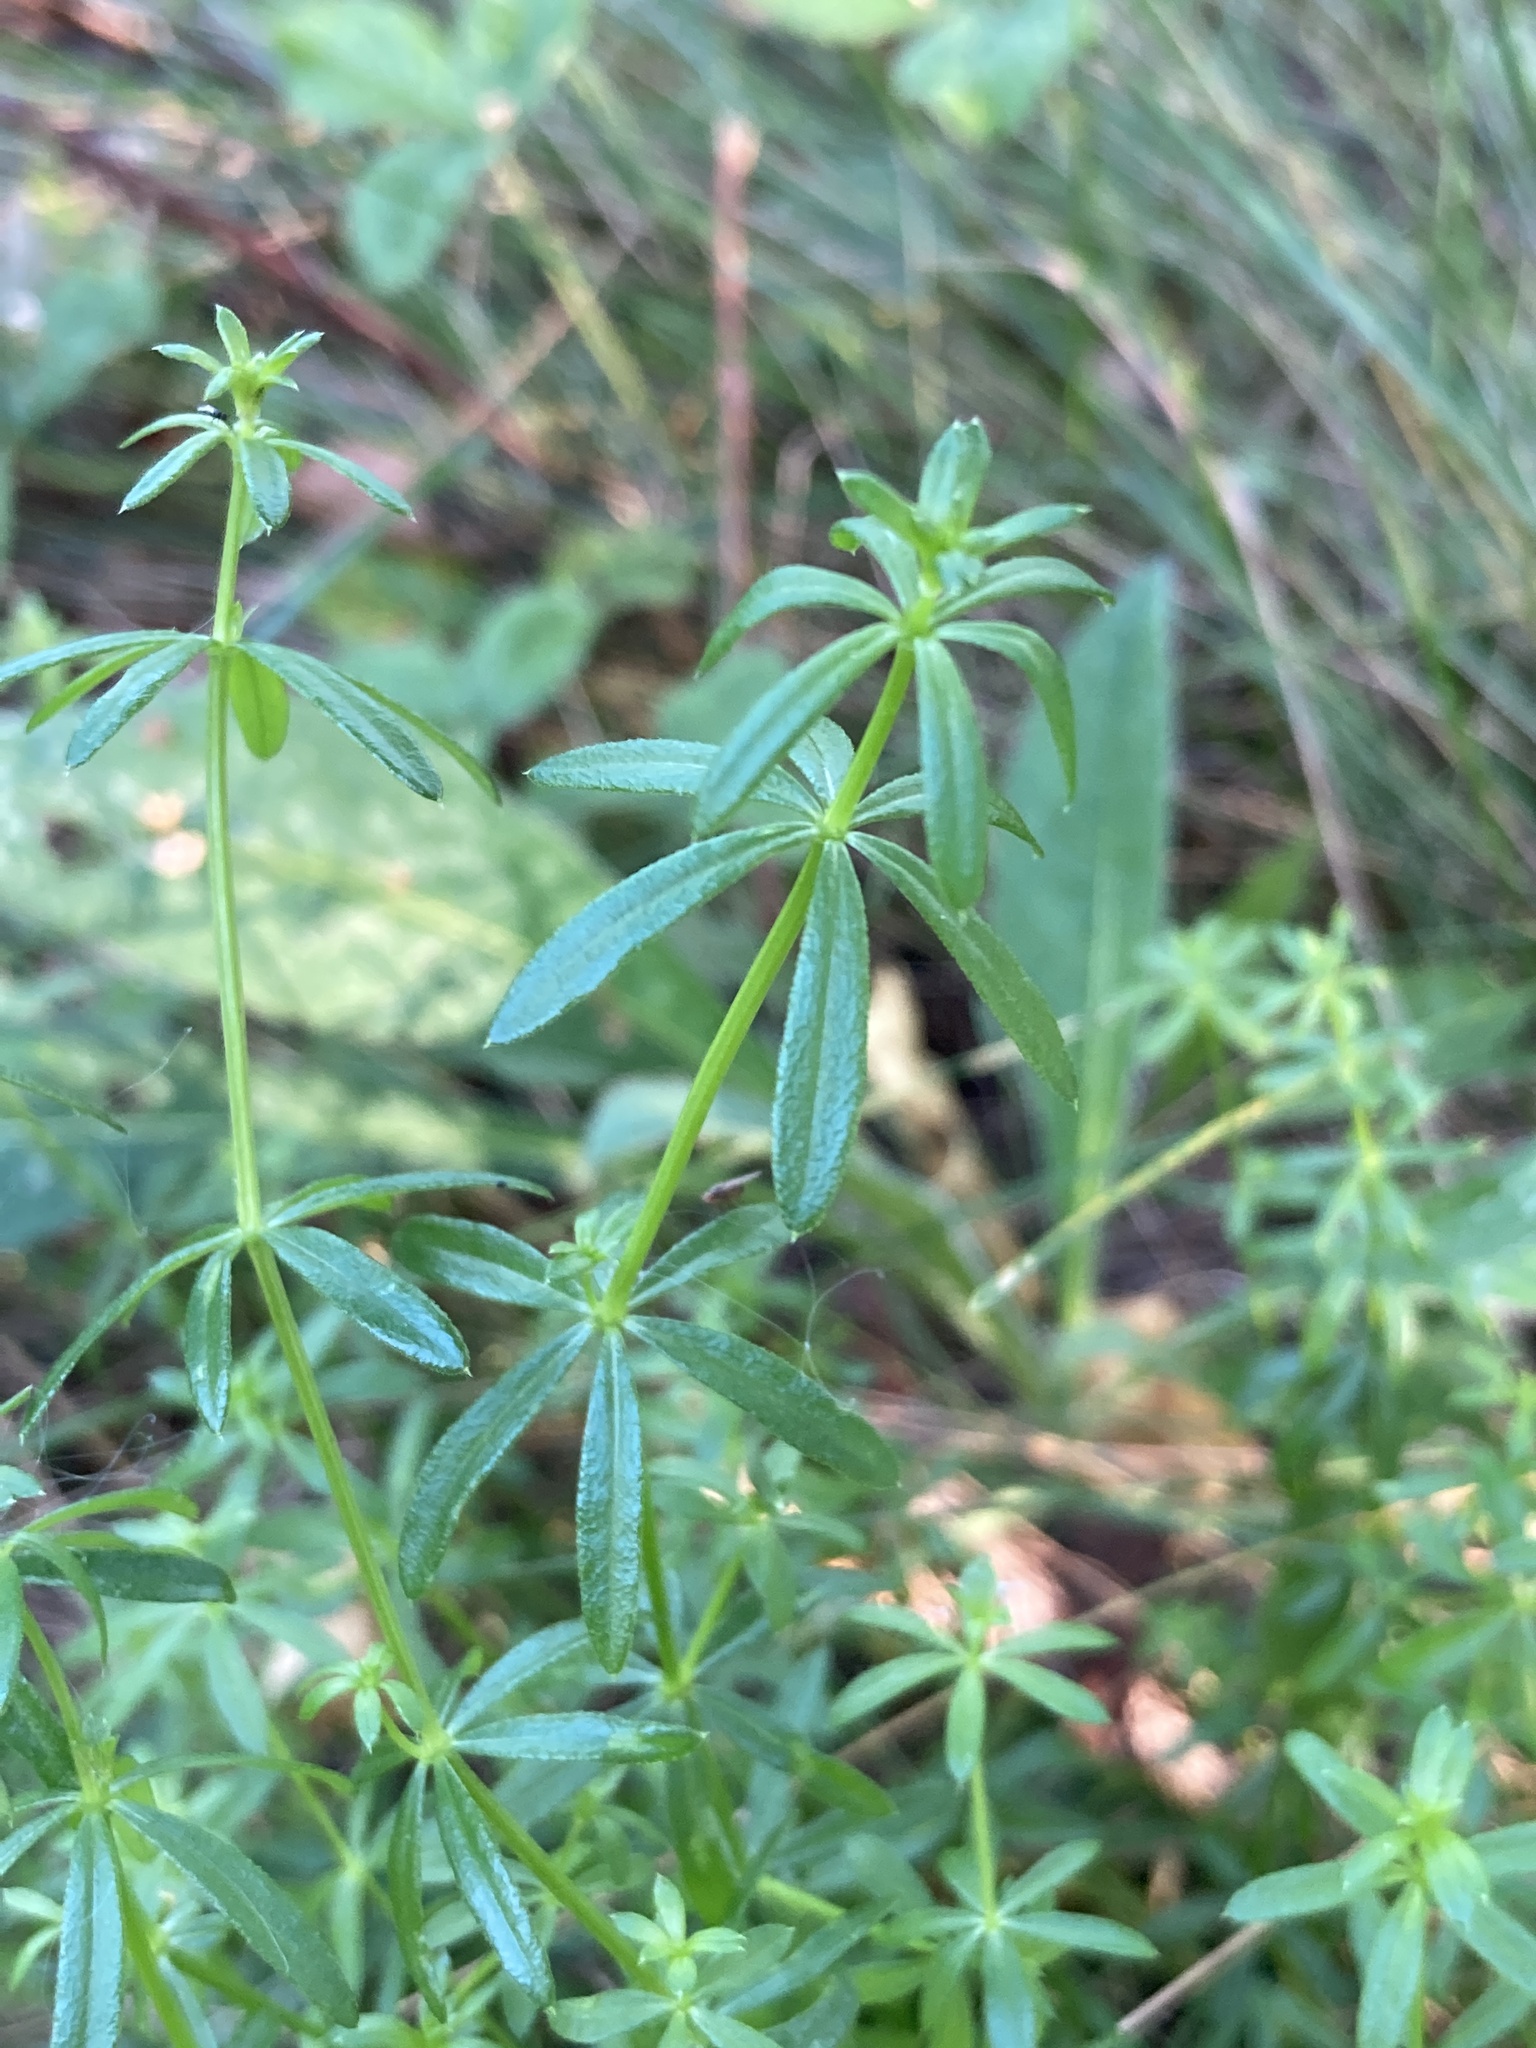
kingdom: Plantae
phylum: Tracheophyta
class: Magnoliopsida
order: Gentianales
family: Rubiaceae
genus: Galium
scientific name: Galium mollugo
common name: Hedge bedstraw
